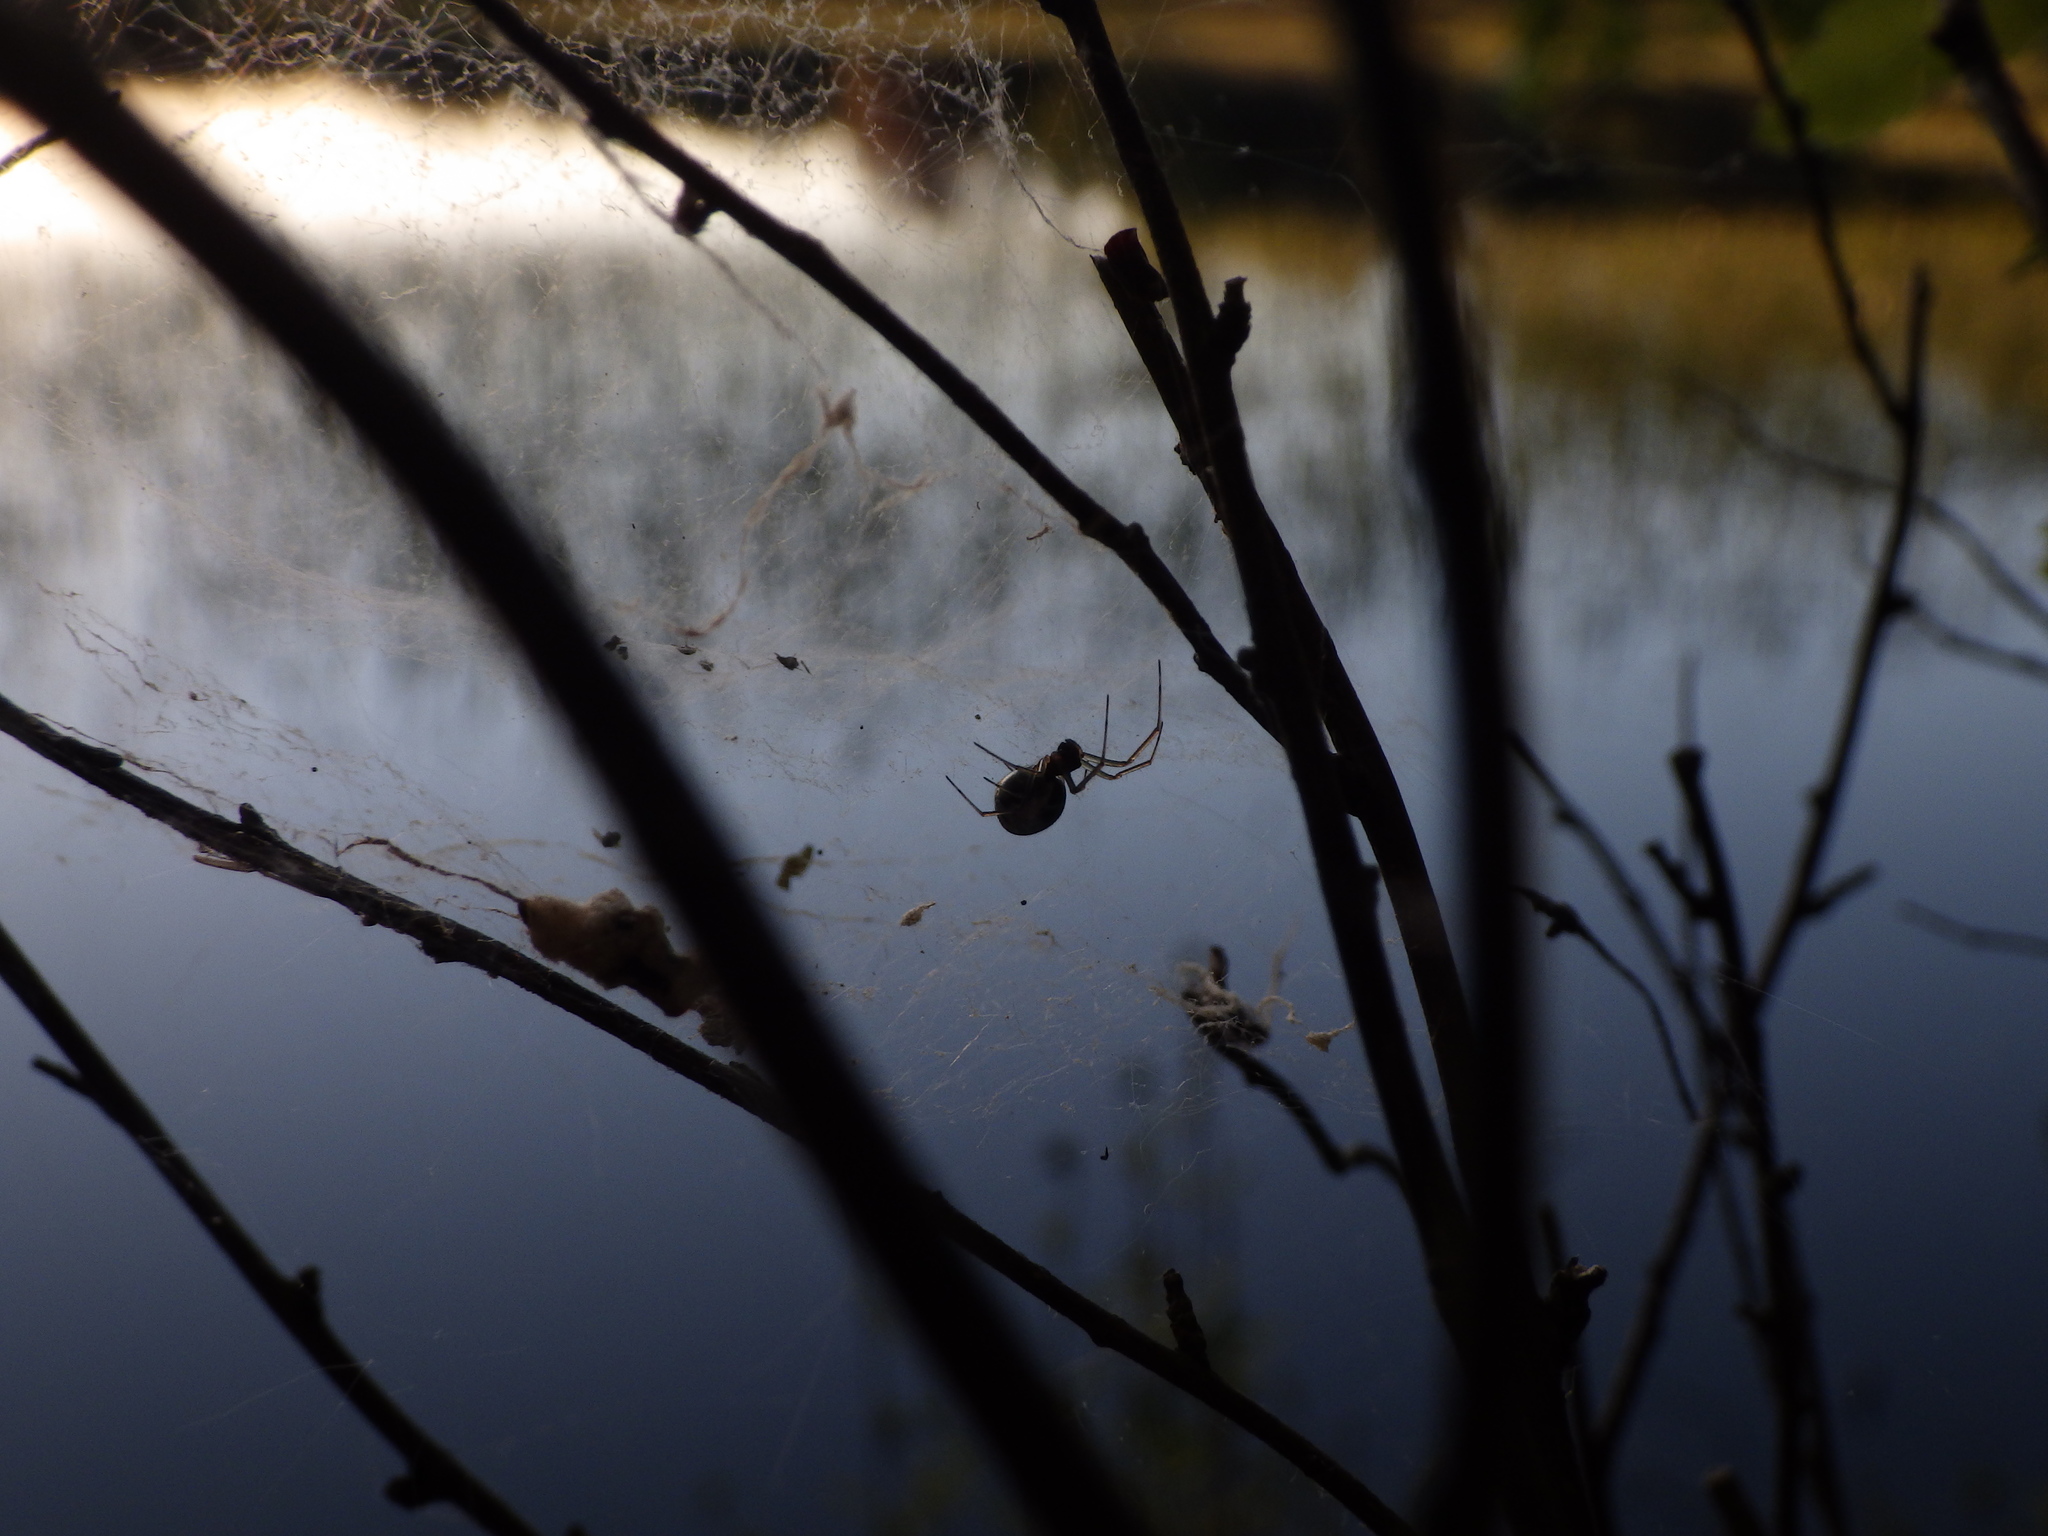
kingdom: Animalia
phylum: Arthropoda
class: Arachnida
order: Araneae
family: Linyphiidae
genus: Frontinella
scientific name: Frontinella pyramitela
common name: Bowl-and-doily spider
